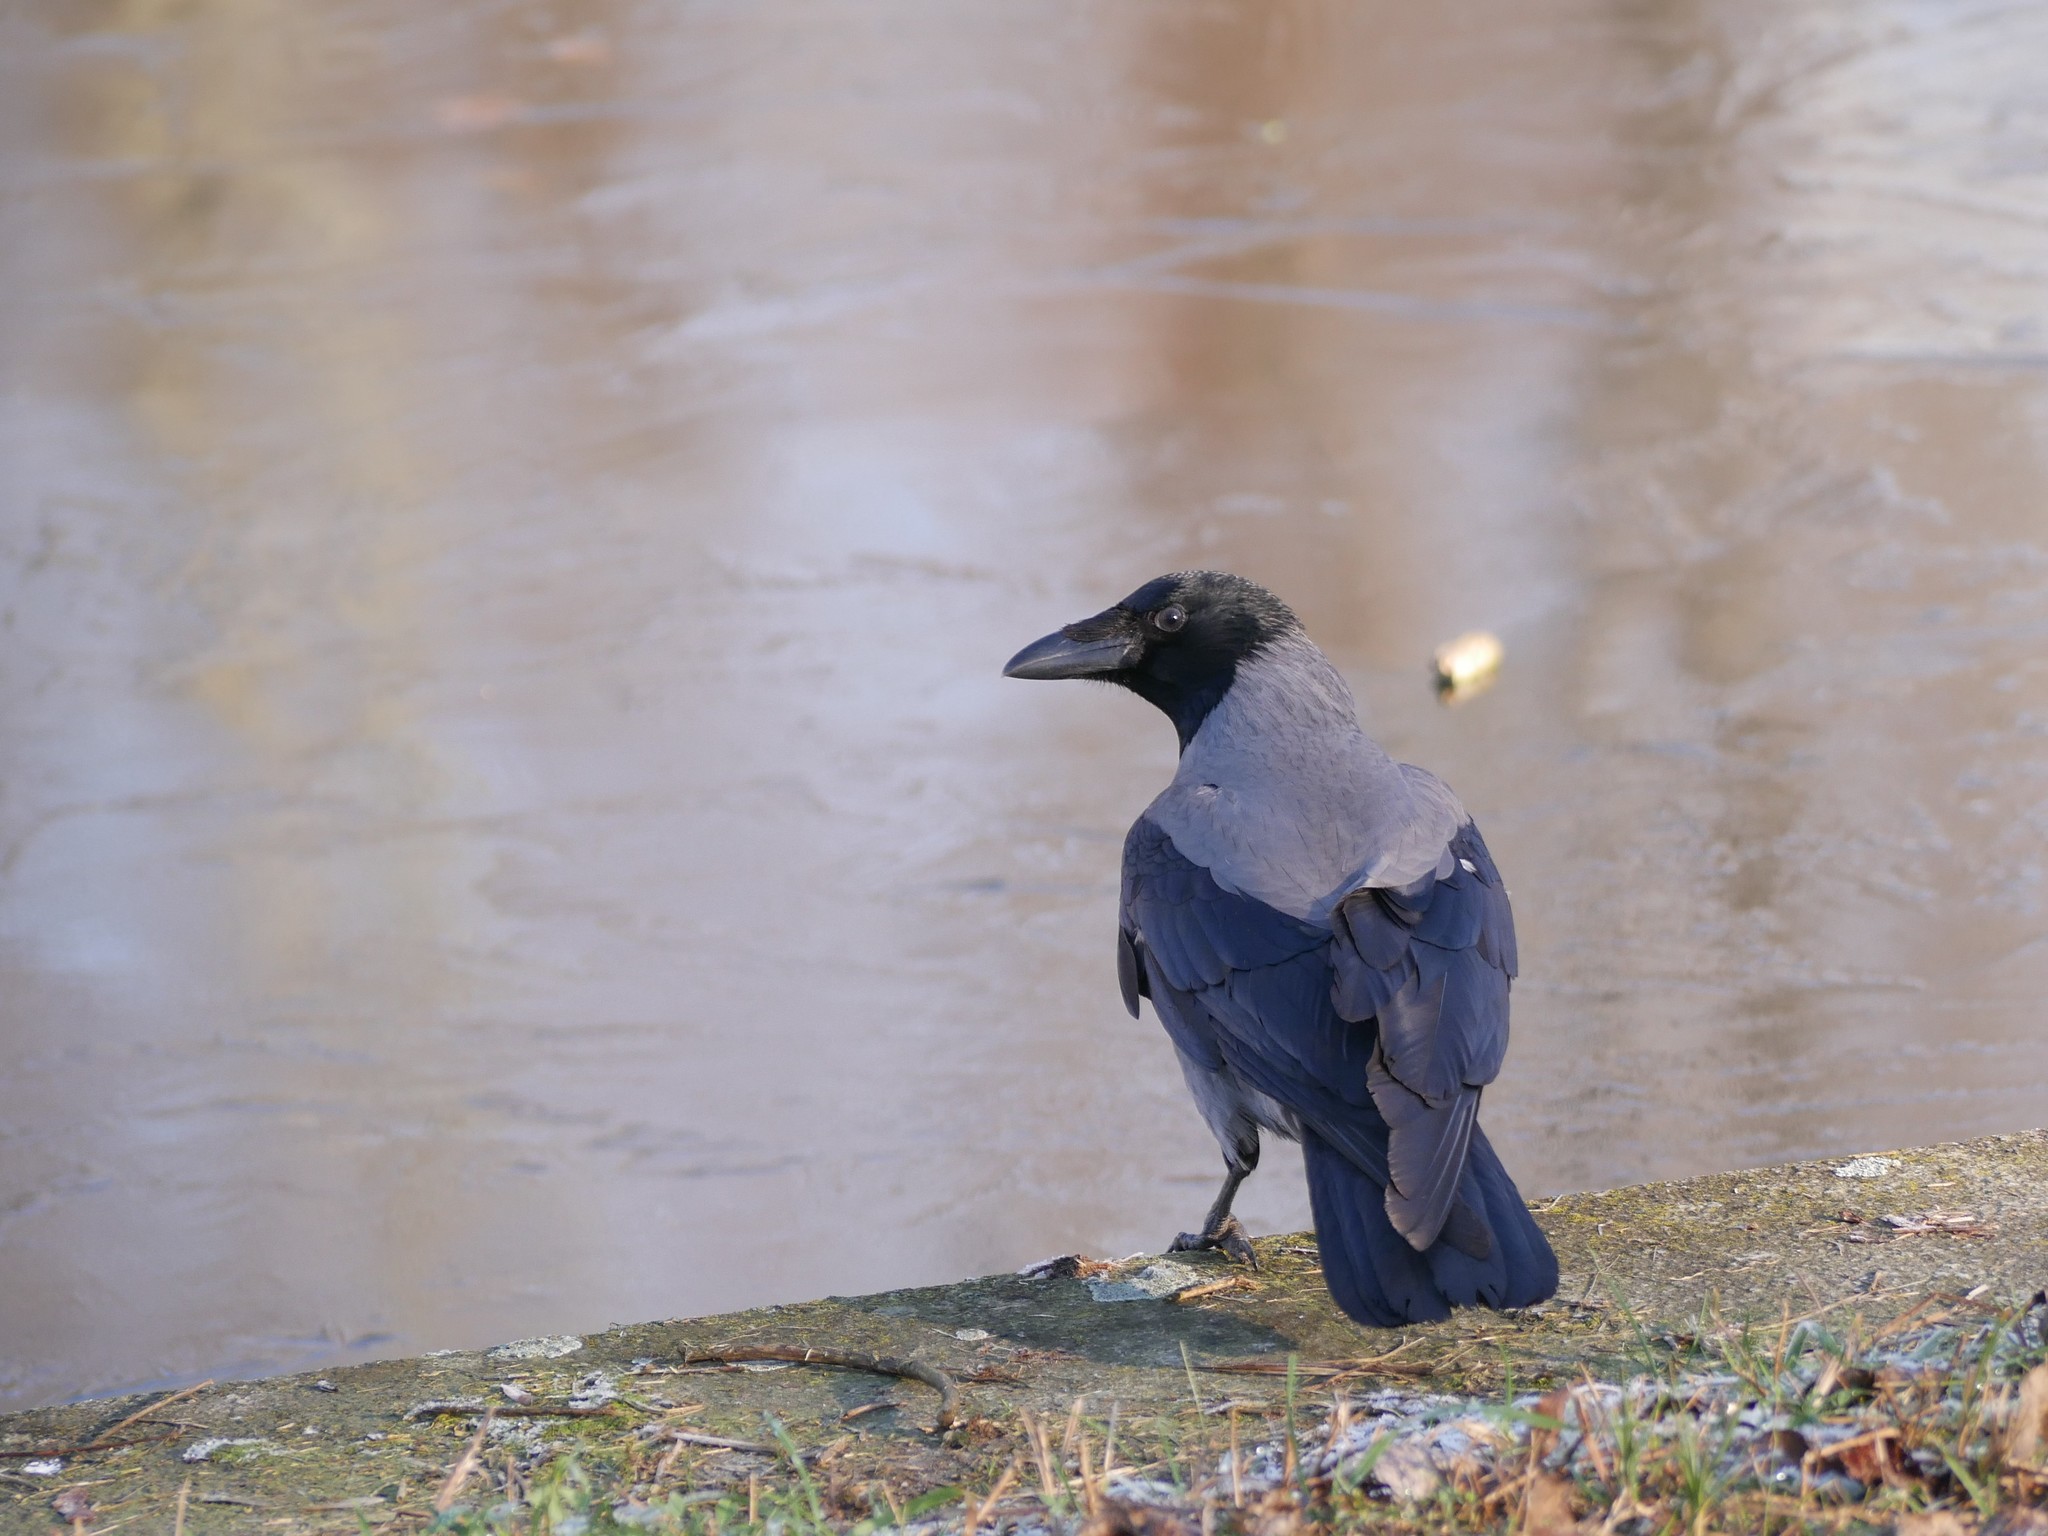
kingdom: Animalia
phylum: Chordata
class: Aves
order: Passeriformes
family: Corvidae
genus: Corvus
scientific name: Corvus cornix
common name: Hooded crow
